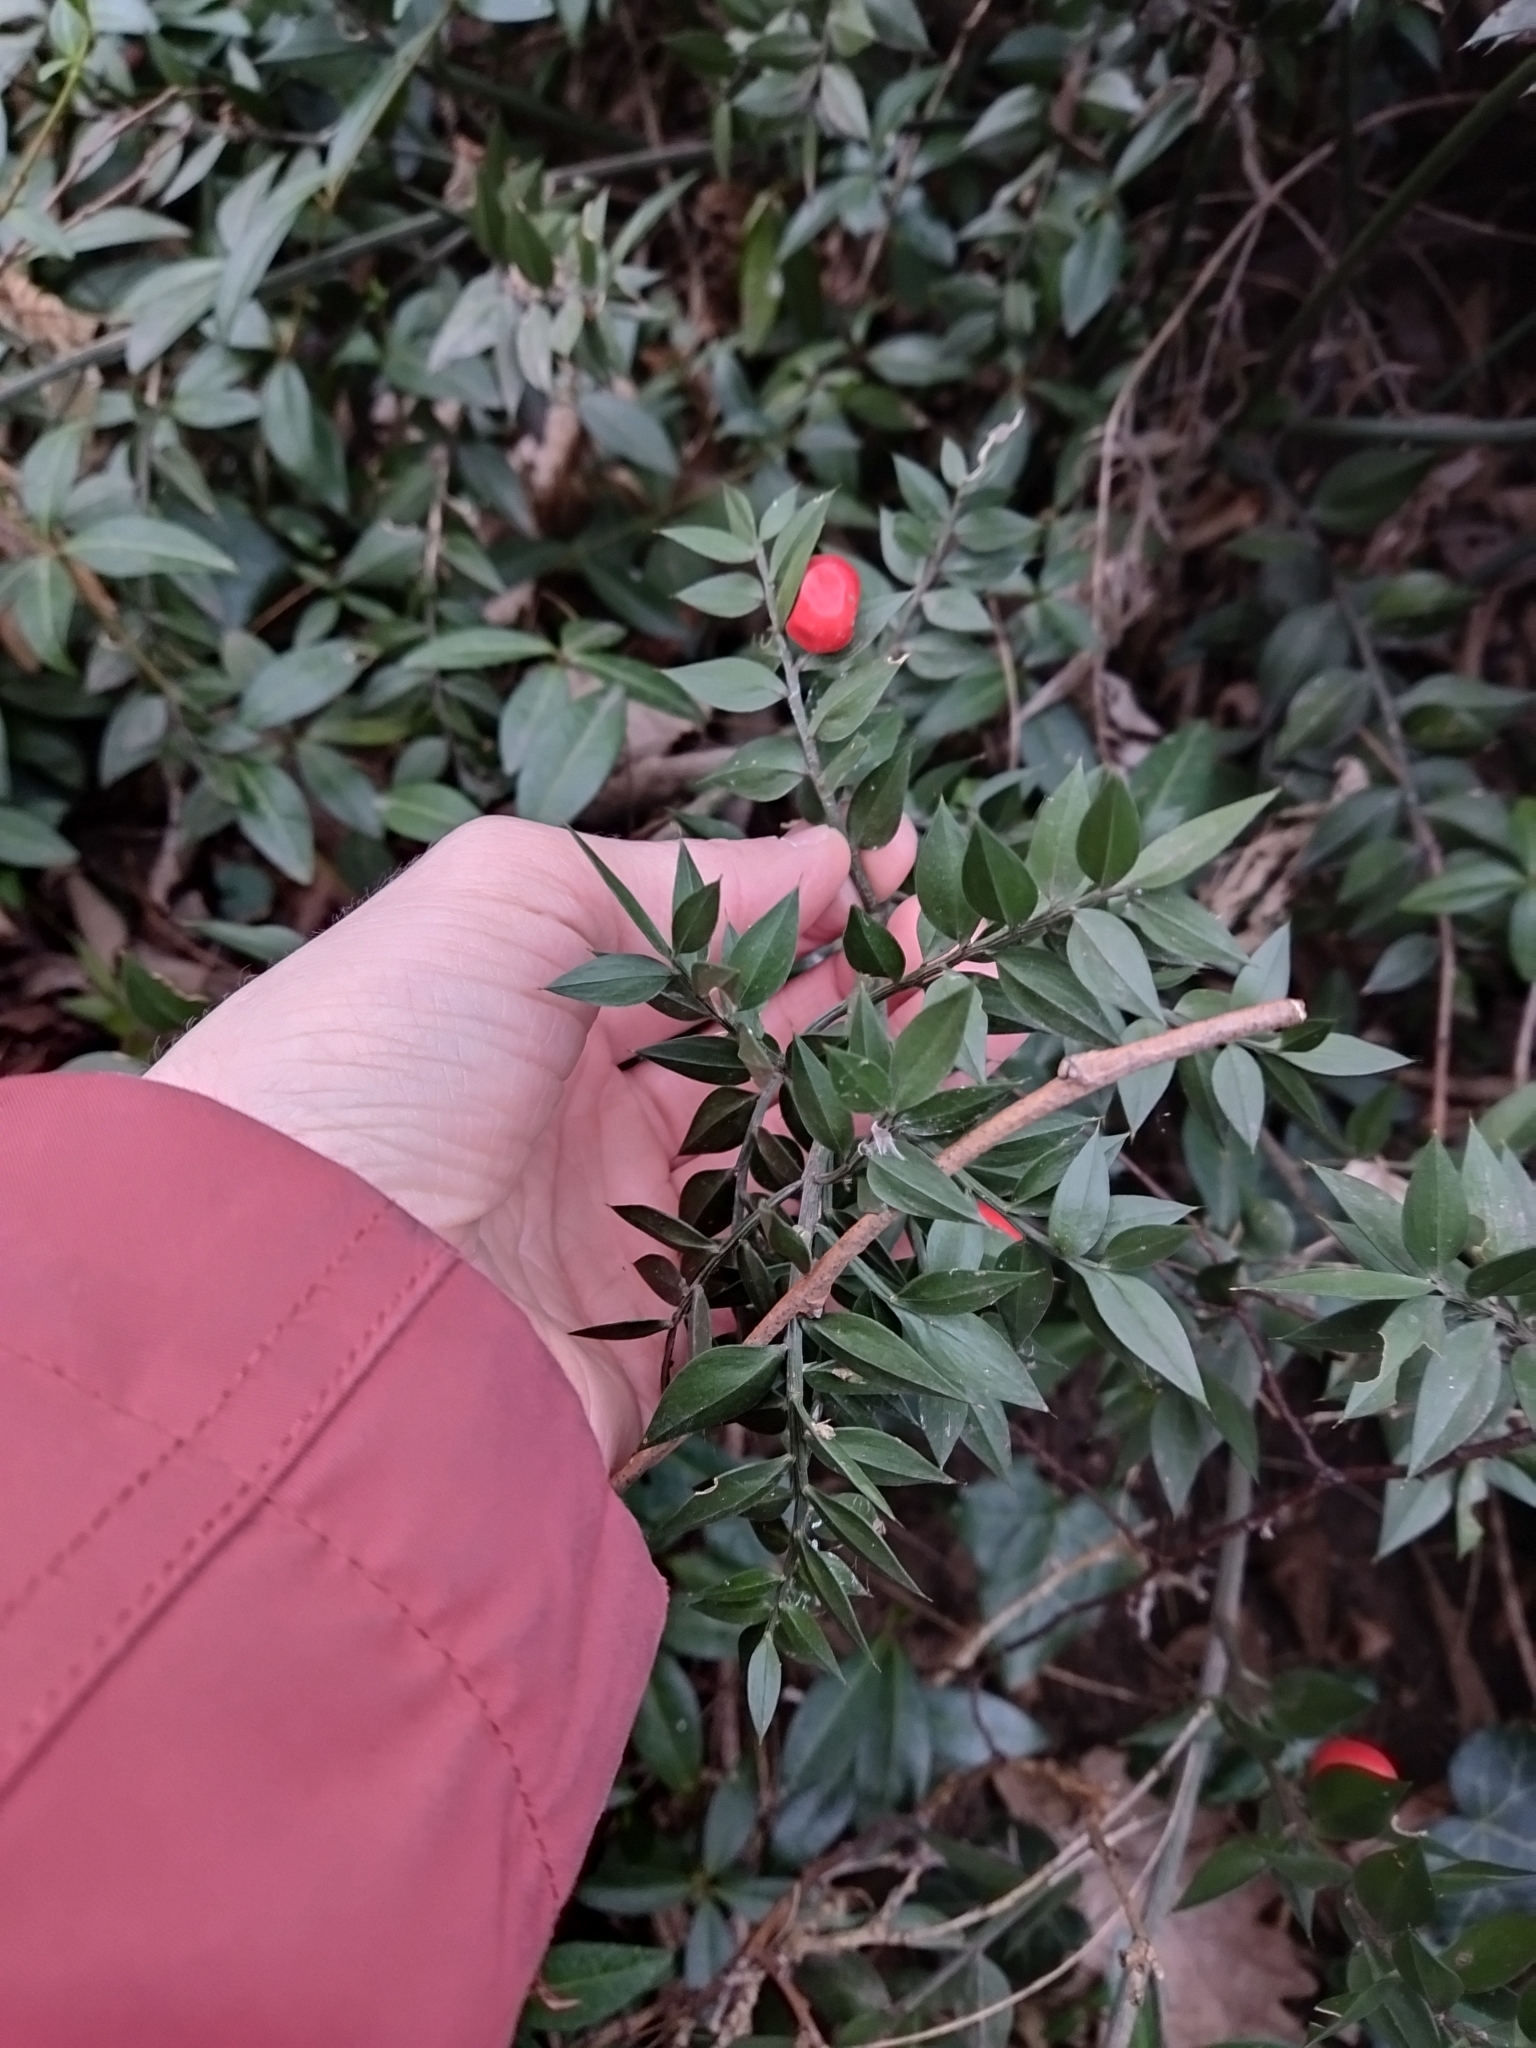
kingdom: Plantae
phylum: Tracheophyta
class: Liliopsida
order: Asparagales
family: Asparagaceae
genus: Ruscus
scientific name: Ruscus aculeatus
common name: Butcher's-broom
